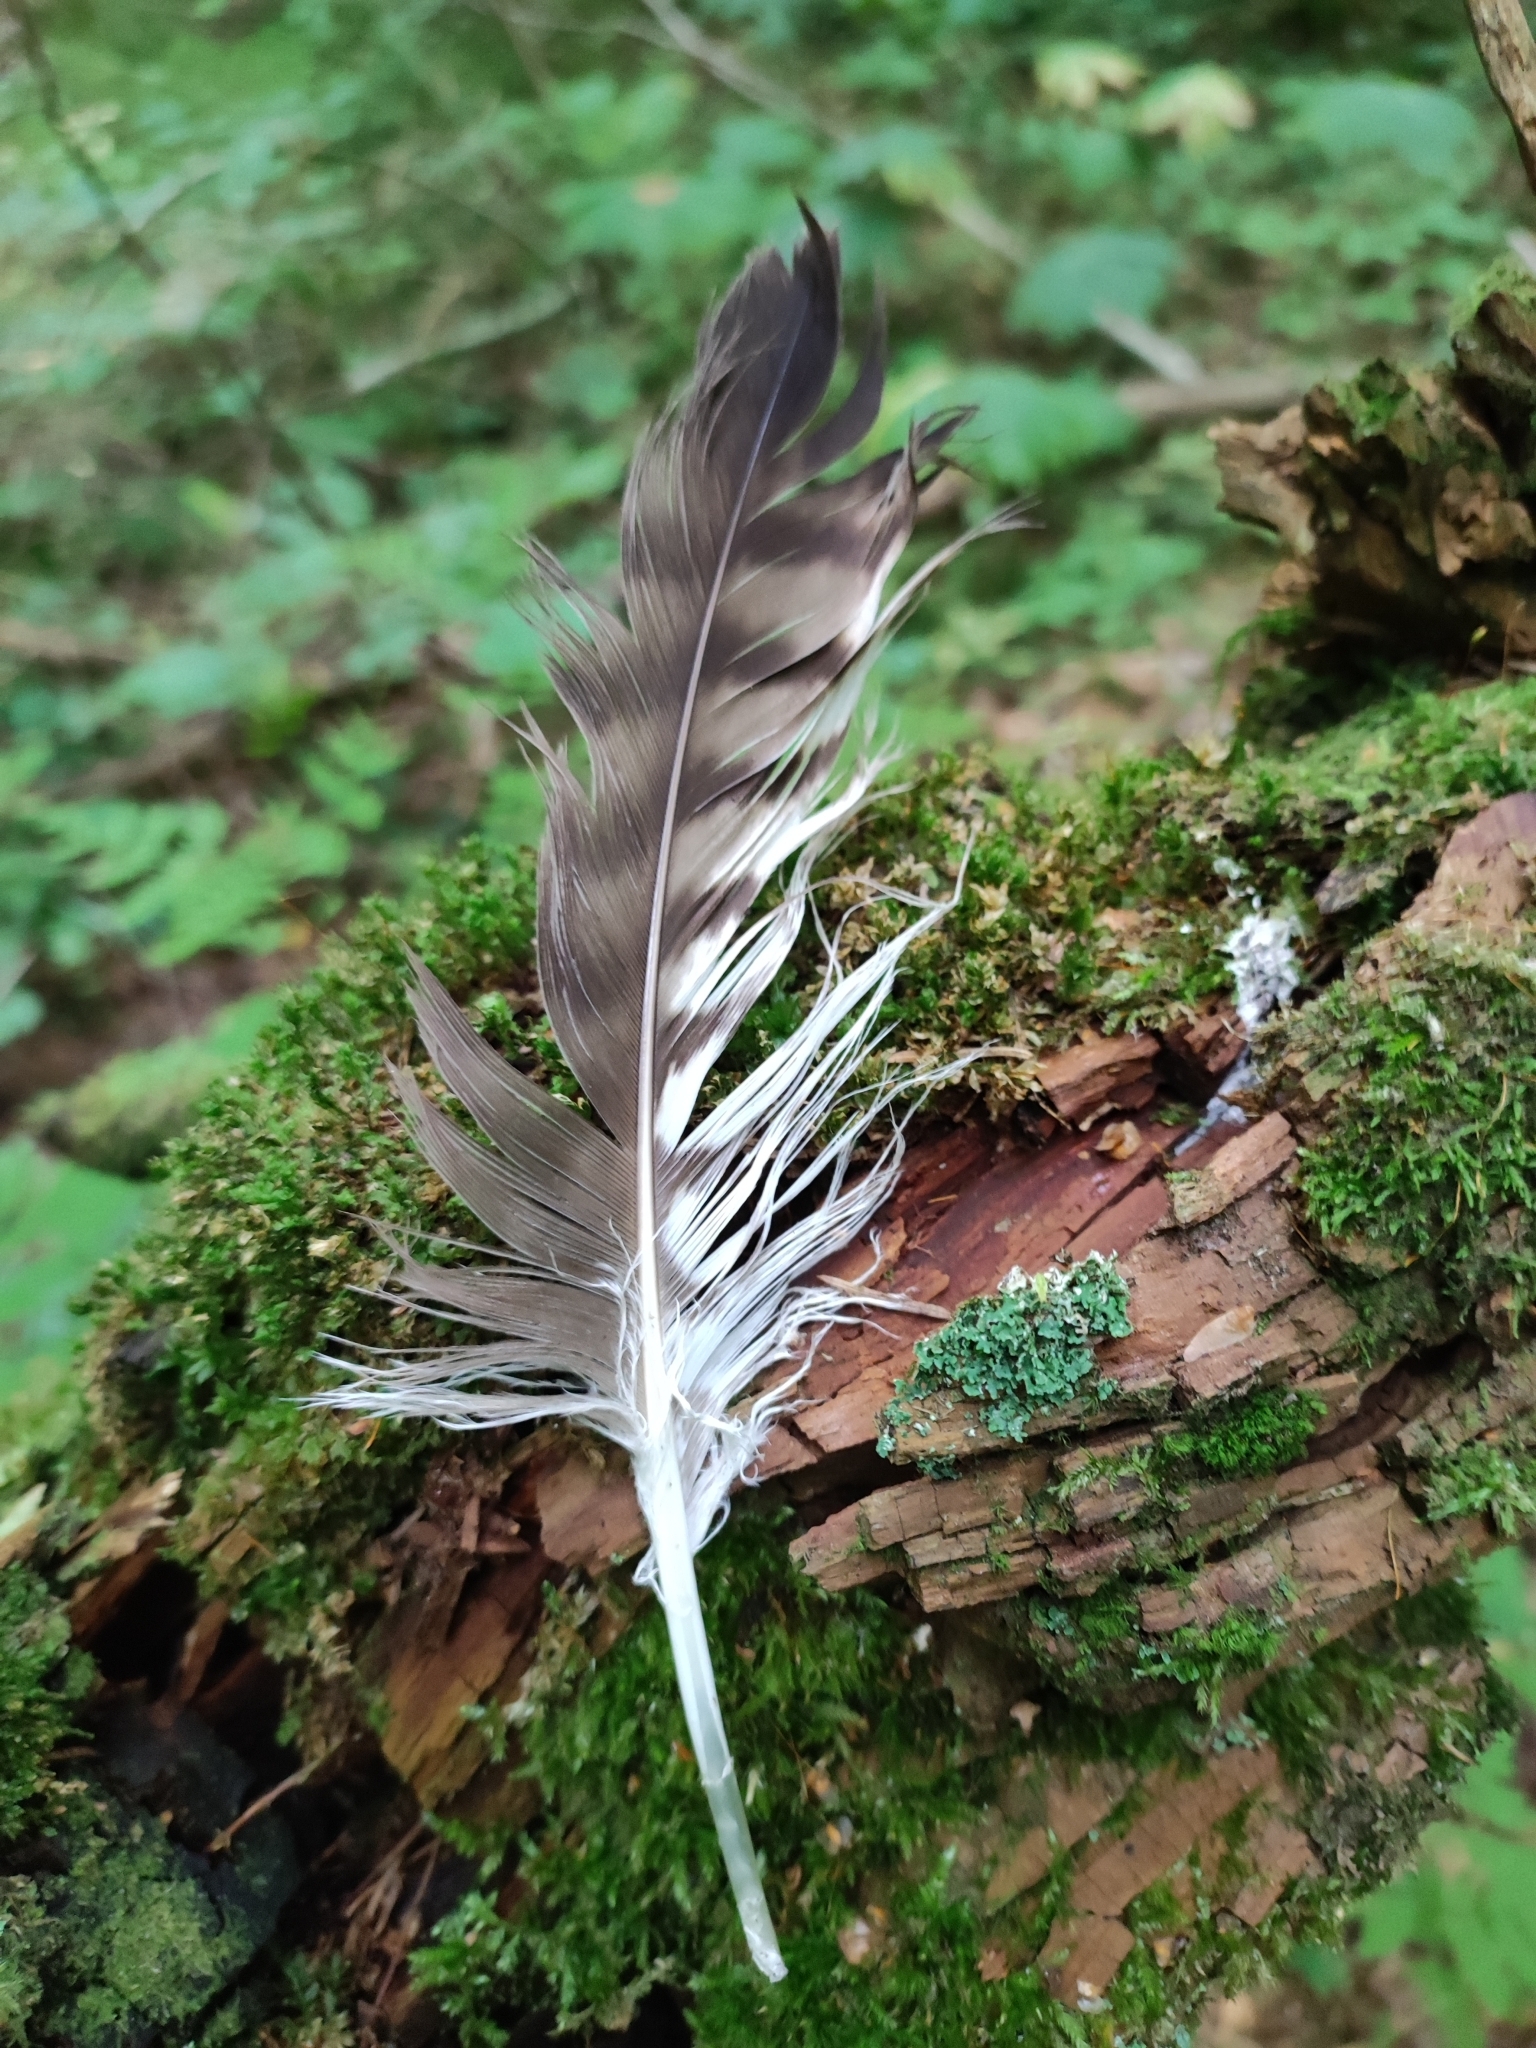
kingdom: Animalia
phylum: Chordata
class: Aves
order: Accipitriformes
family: Accipitridae
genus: Buteo
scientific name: Buteo buteo
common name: Common buzzard
